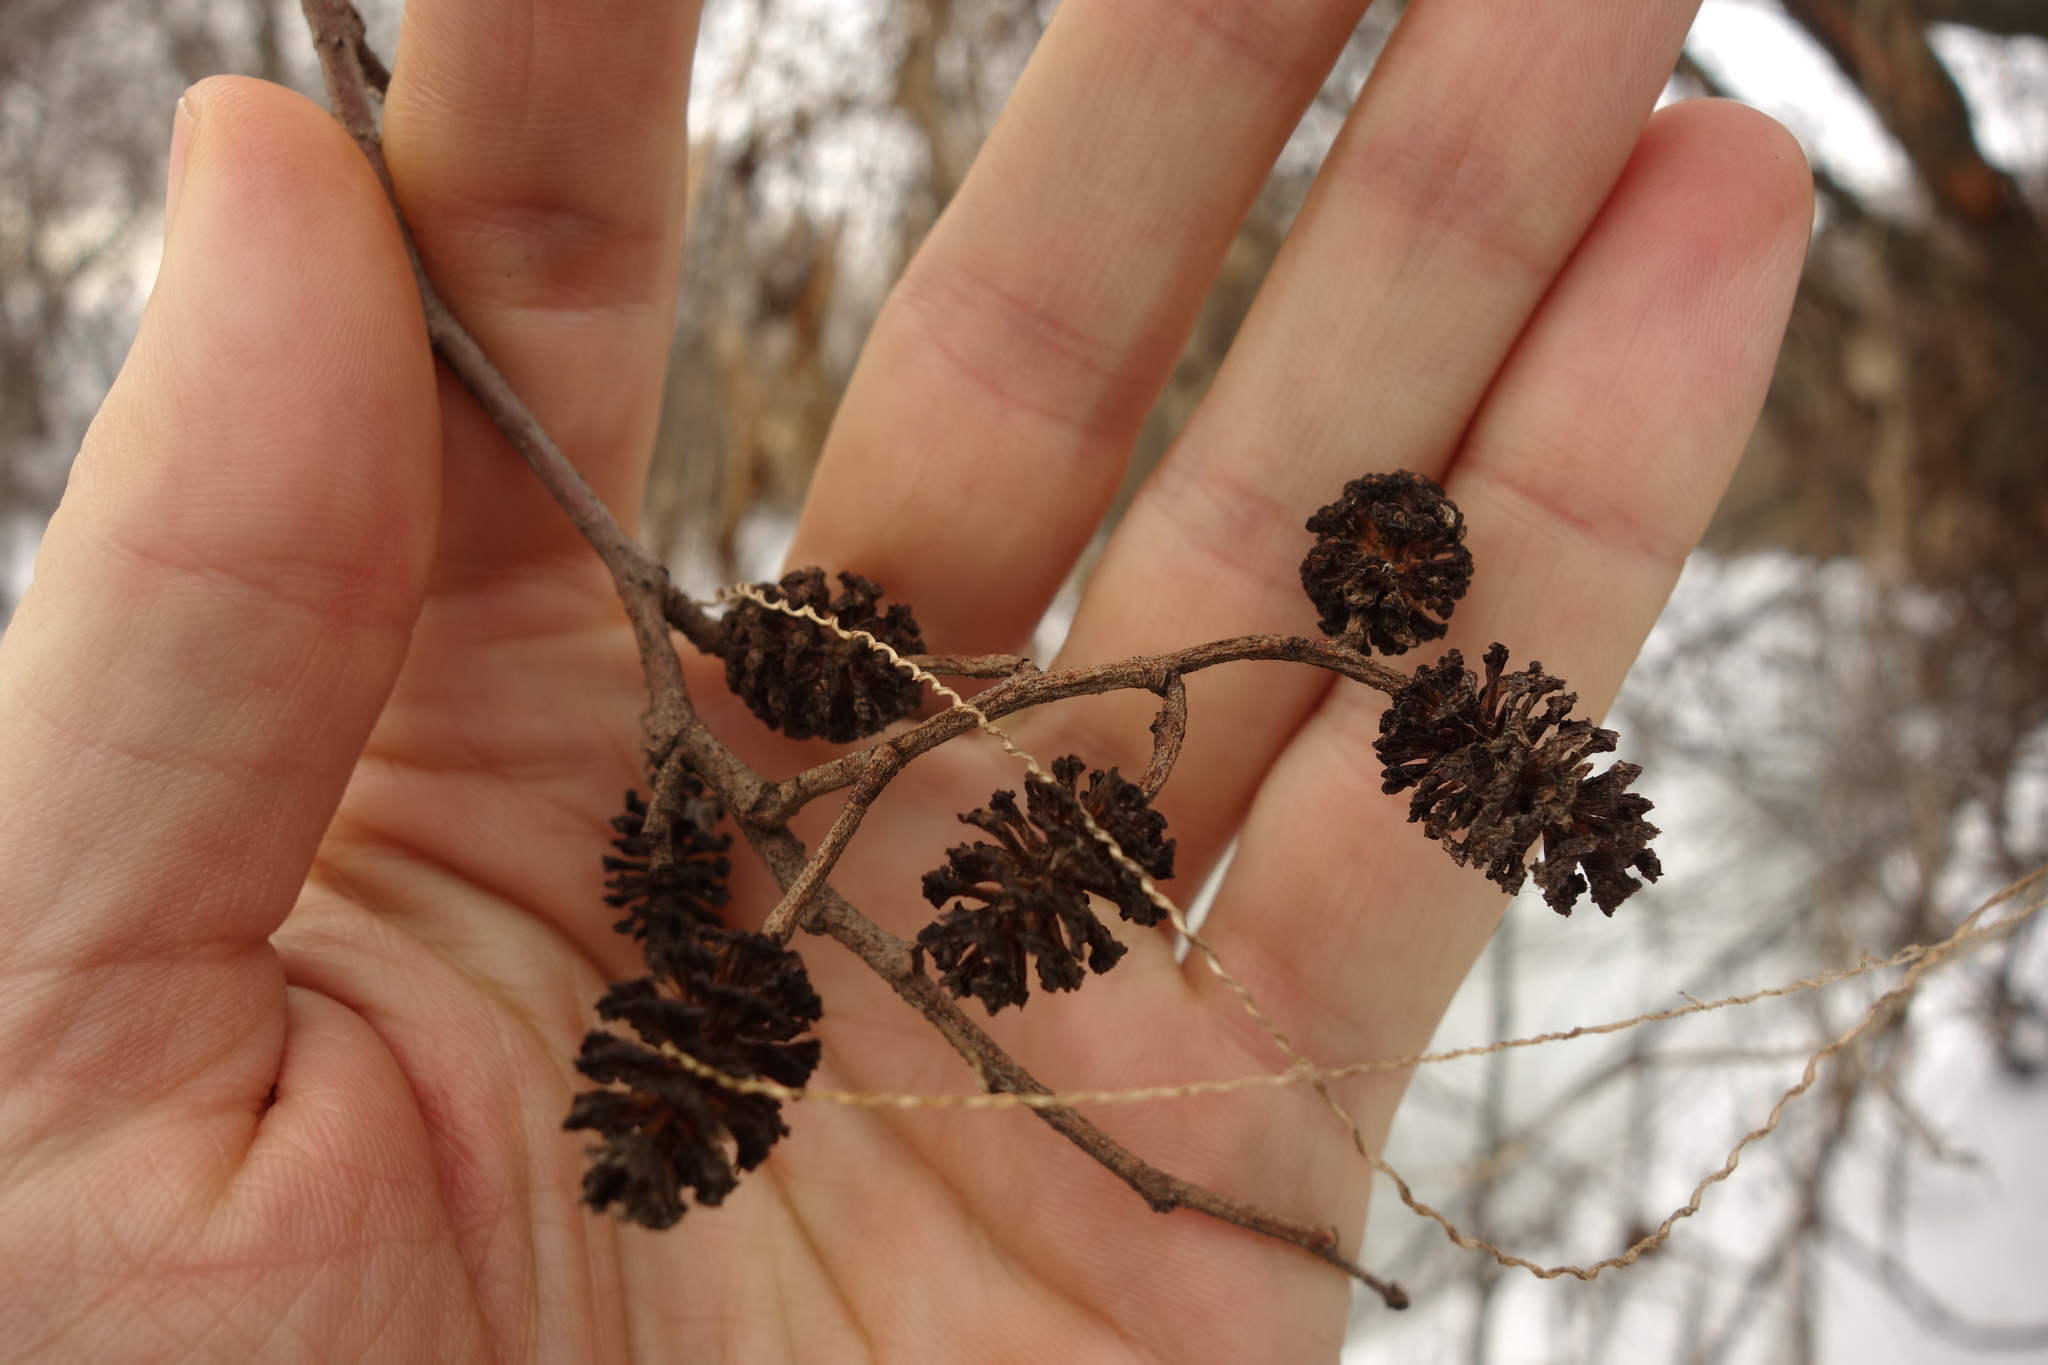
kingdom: Plantae
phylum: Tracheophyta
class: Magnoliopsida
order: Fagales
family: Betulaceae
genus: Alnus
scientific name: Alnus glutinosa
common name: Black alder
